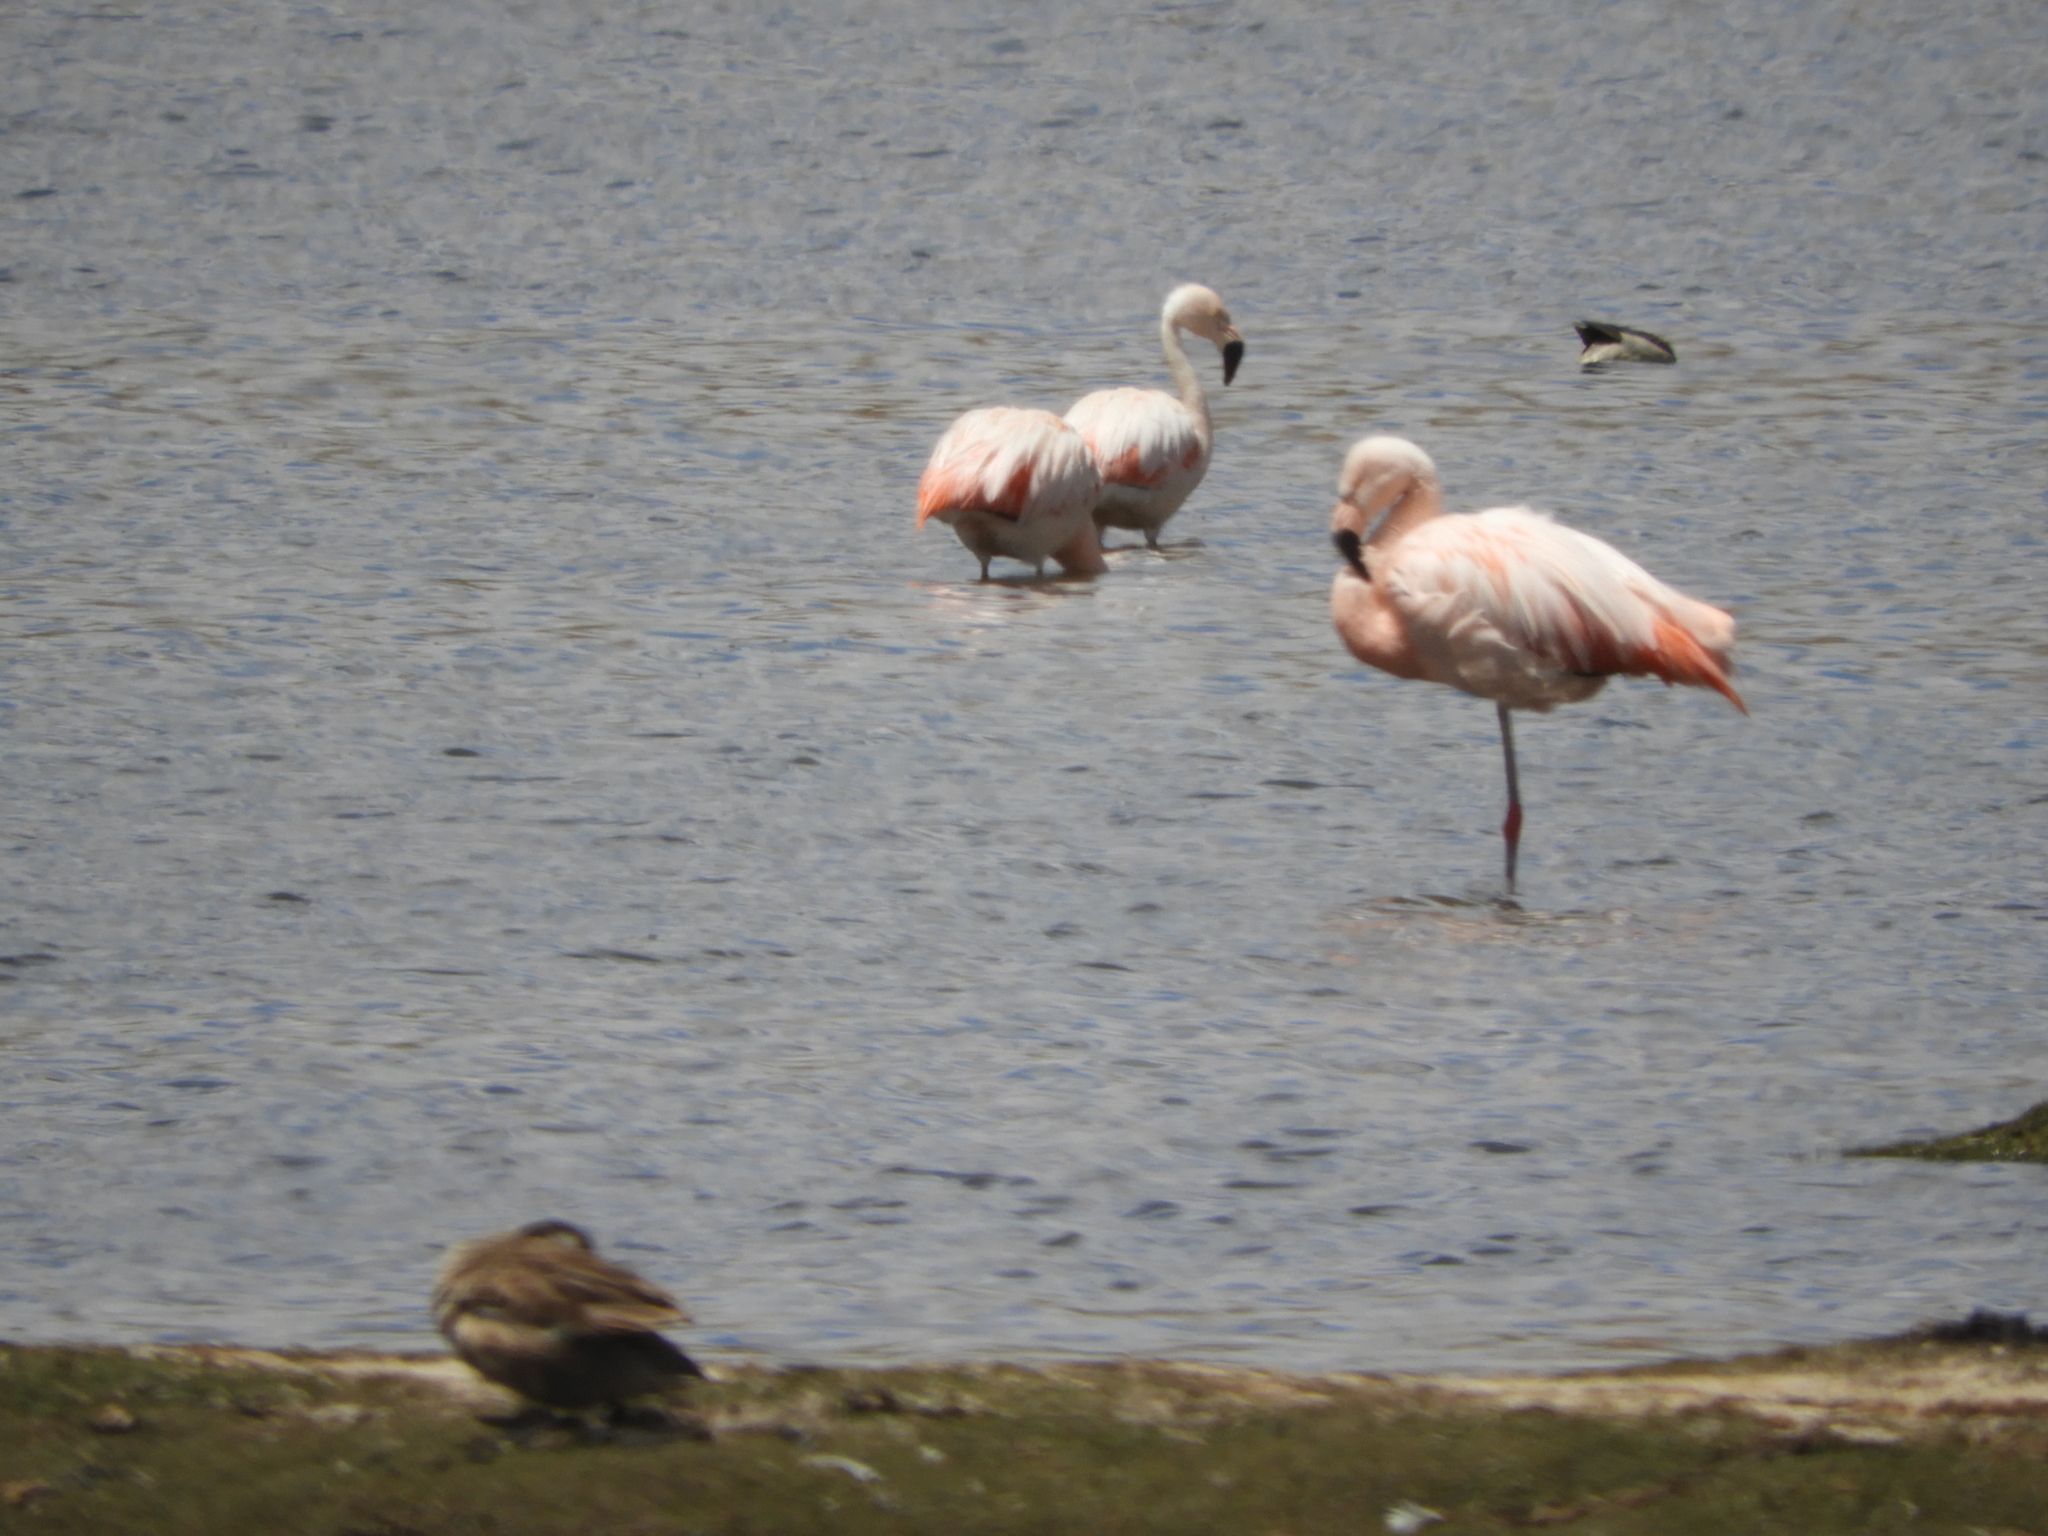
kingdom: Animalia
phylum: Chordata
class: Aves
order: Phoenicopteriformes
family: Phoenicopteridae
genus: Phoenicopterus
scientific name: Phoenicopterus chilensis
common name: Chilean flamingo
